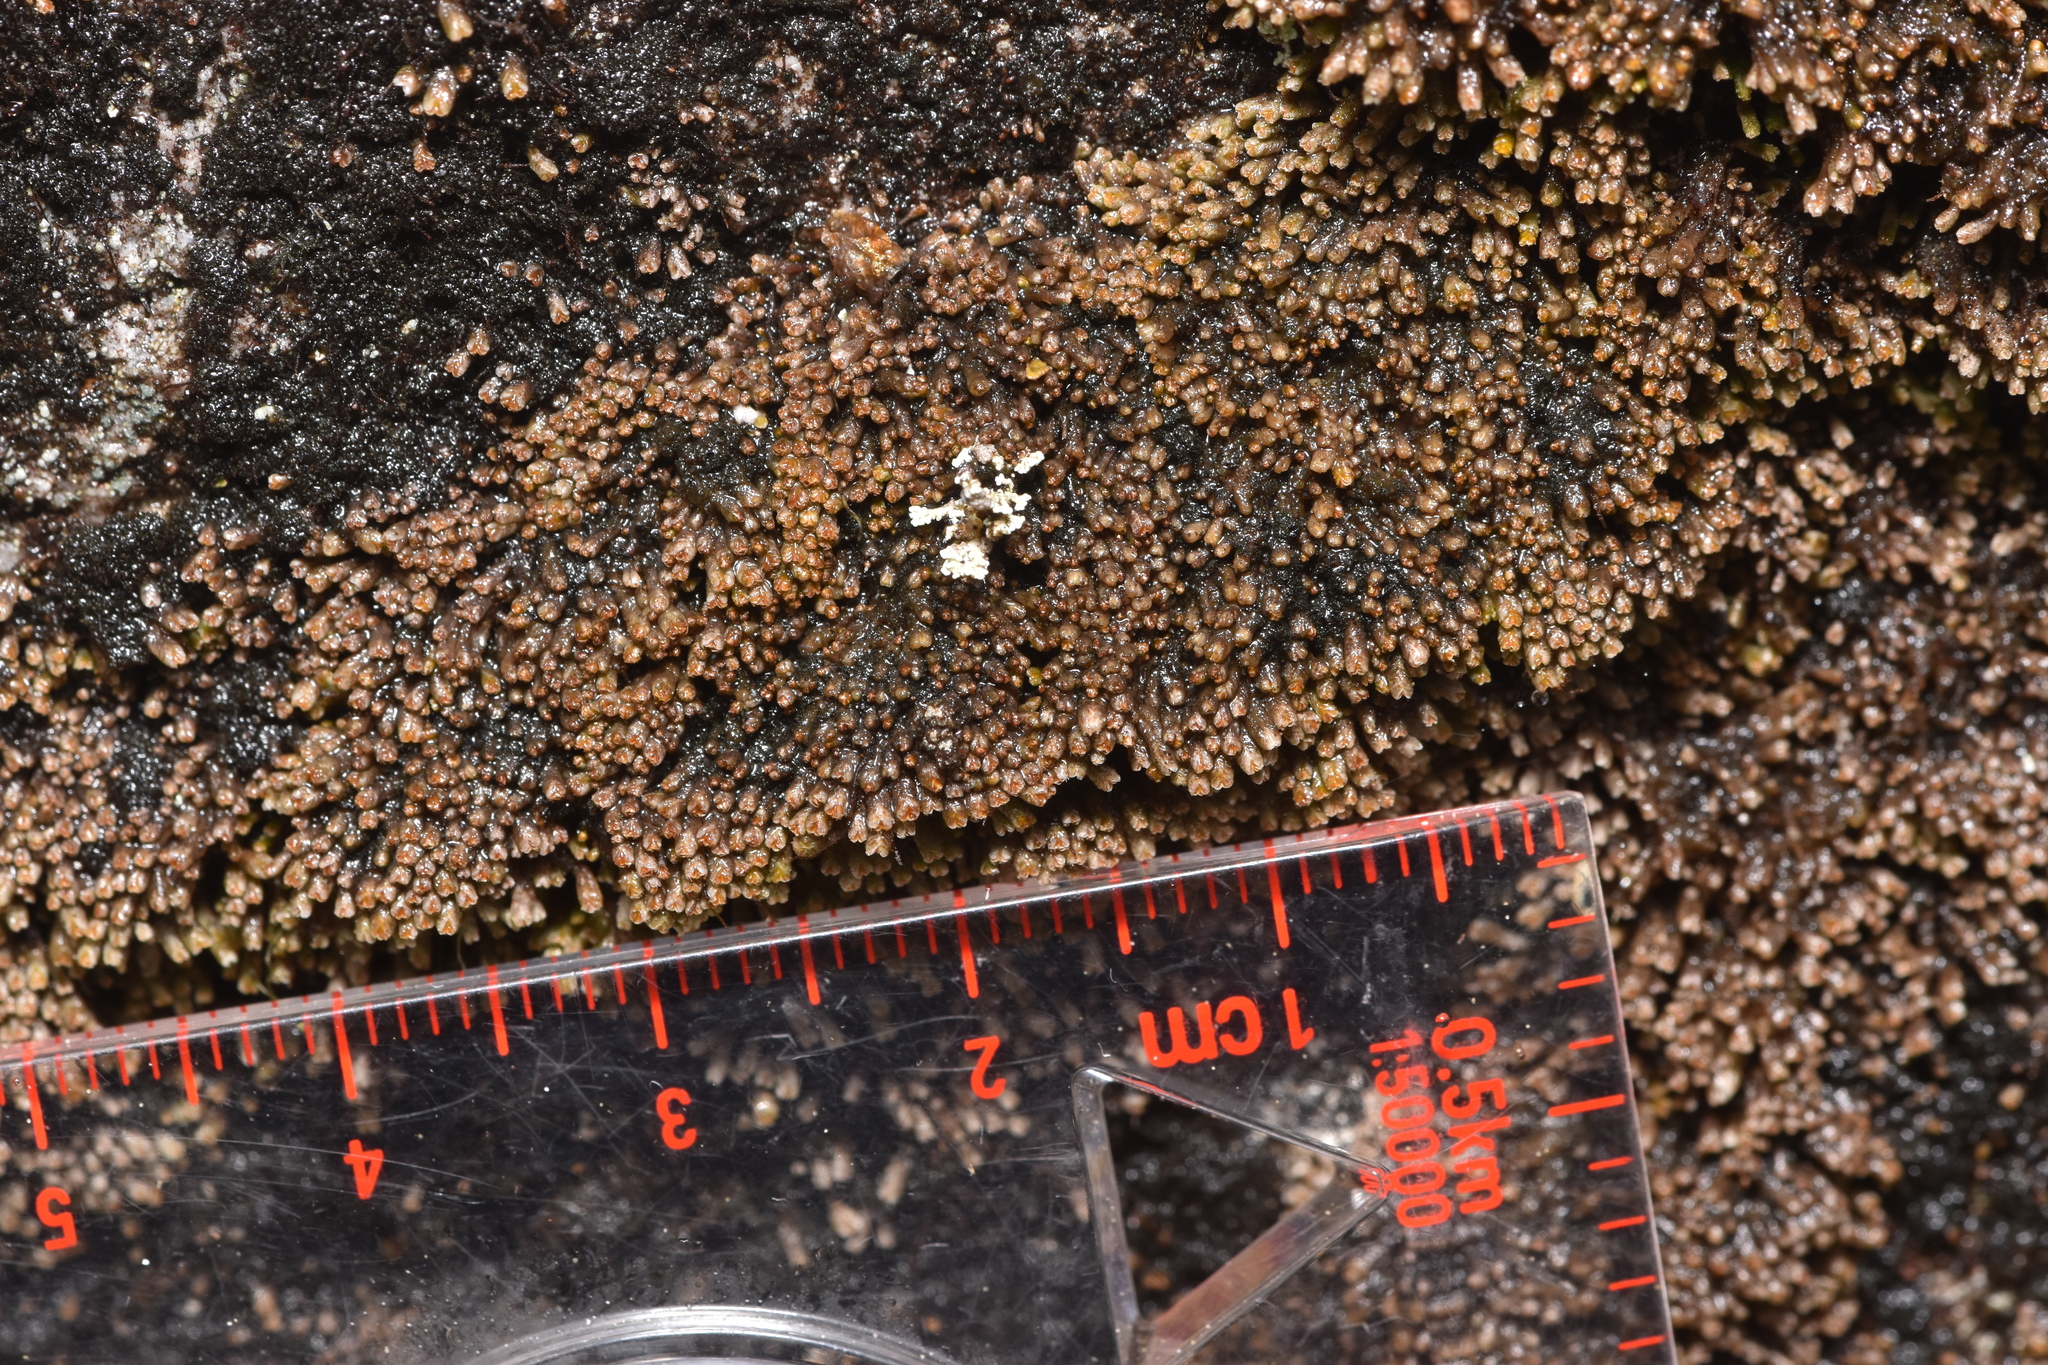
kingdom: Plantae
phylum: Marchantiophyta
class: Jungermanniopsida
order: Jungermanniales
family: Gymnomitriaceae
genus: Gymnomitrion
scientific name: Gymnomitrion obtusum
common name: White frostwort
